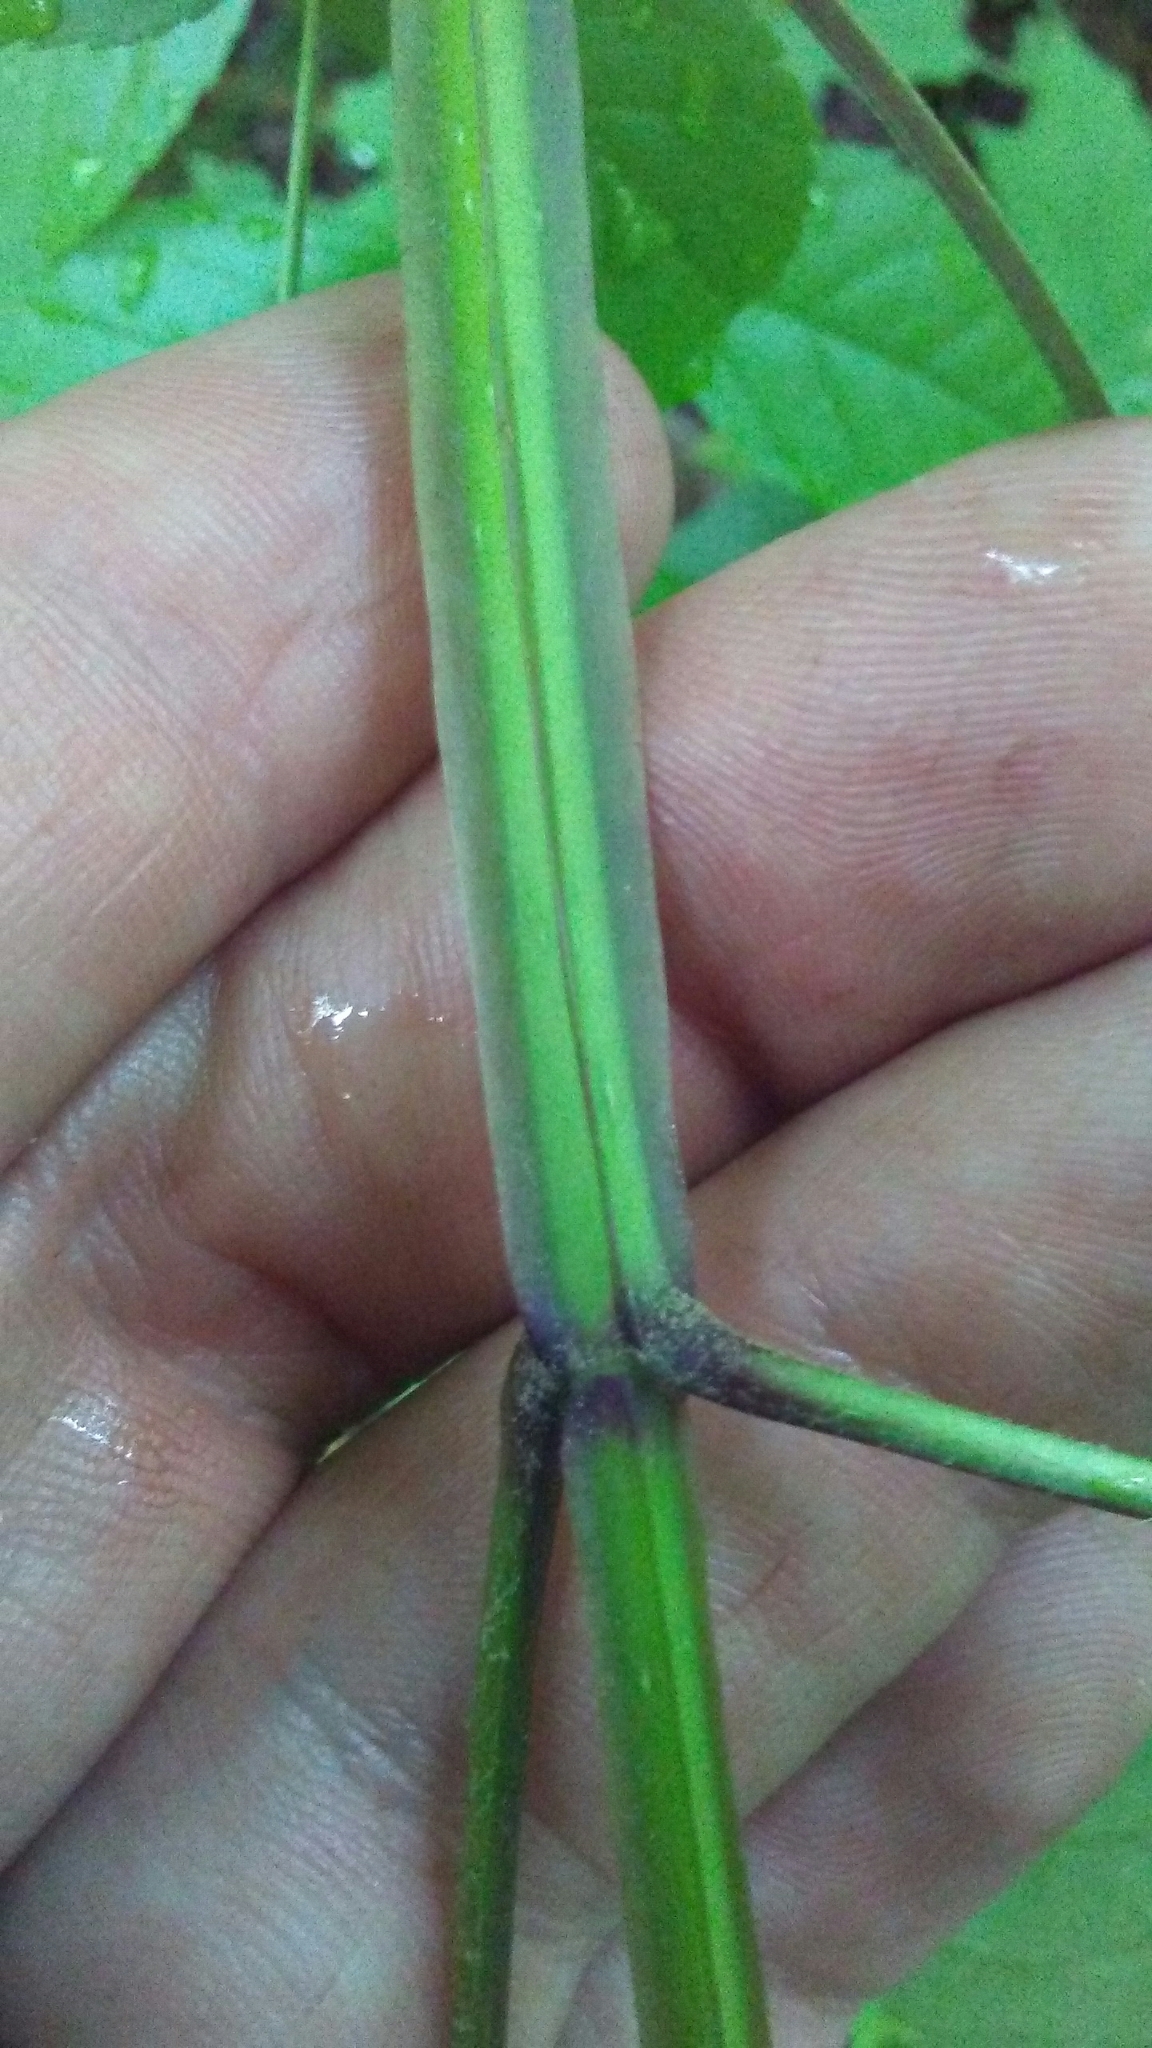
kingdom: Plantae
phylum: Tracheophyta
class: Magnoliopsida
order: Lamiales
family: Oleaceae
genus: Fraxinus
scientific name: Fraxinus quadrangulata
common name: Blue ash
